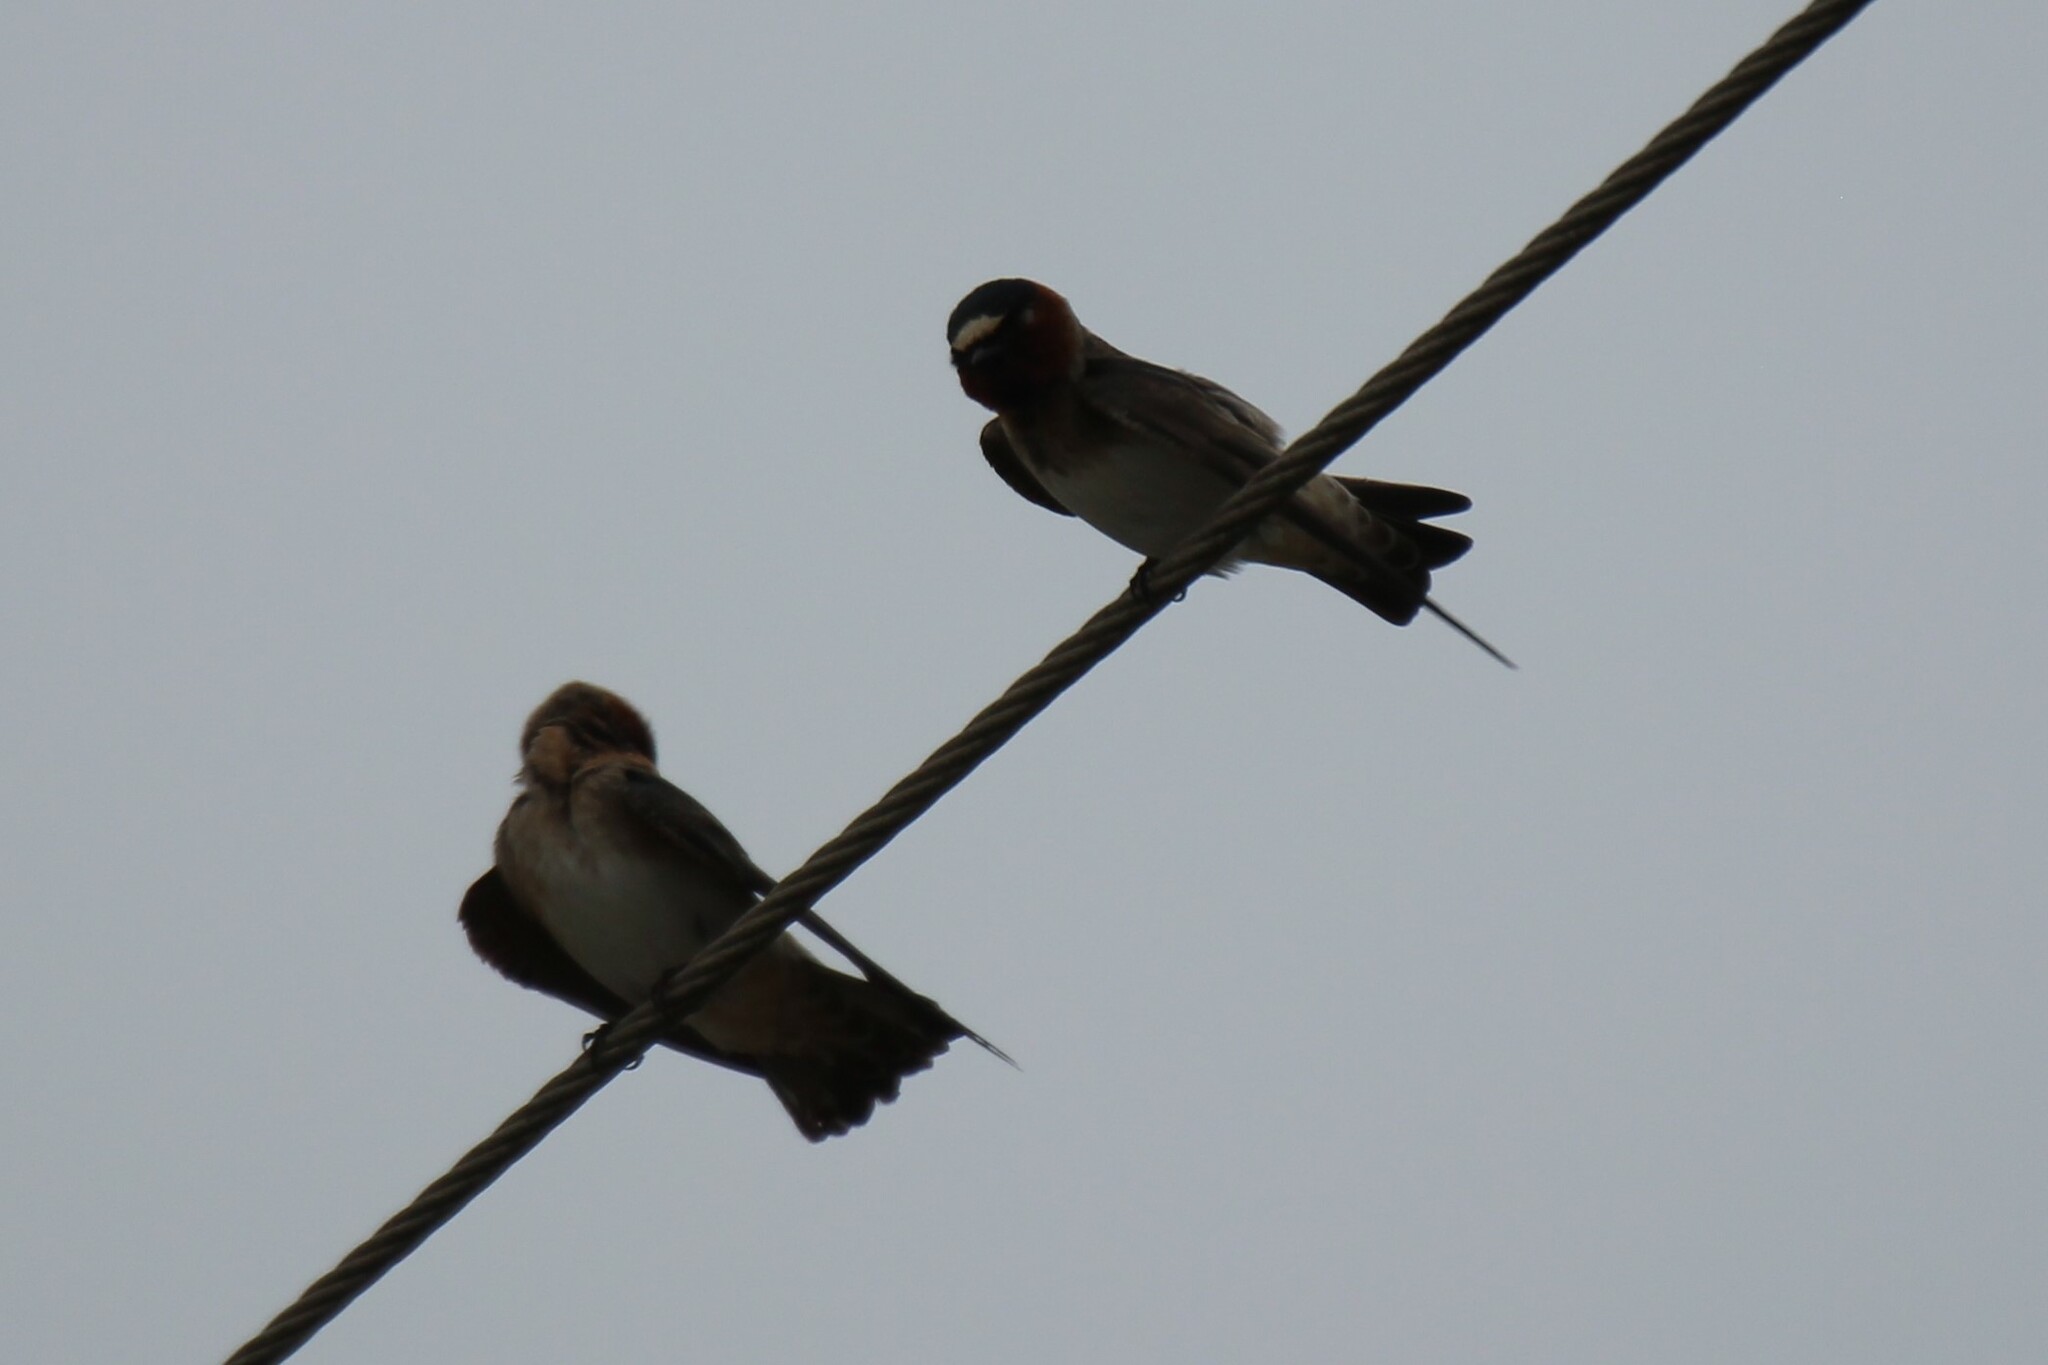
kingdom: Animalia
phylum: Chordata
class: Aves
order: Passeriformes
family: Hirundinidae
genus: Petrochelidon
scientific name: Petrochelidon fulva
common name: Cave swallow
